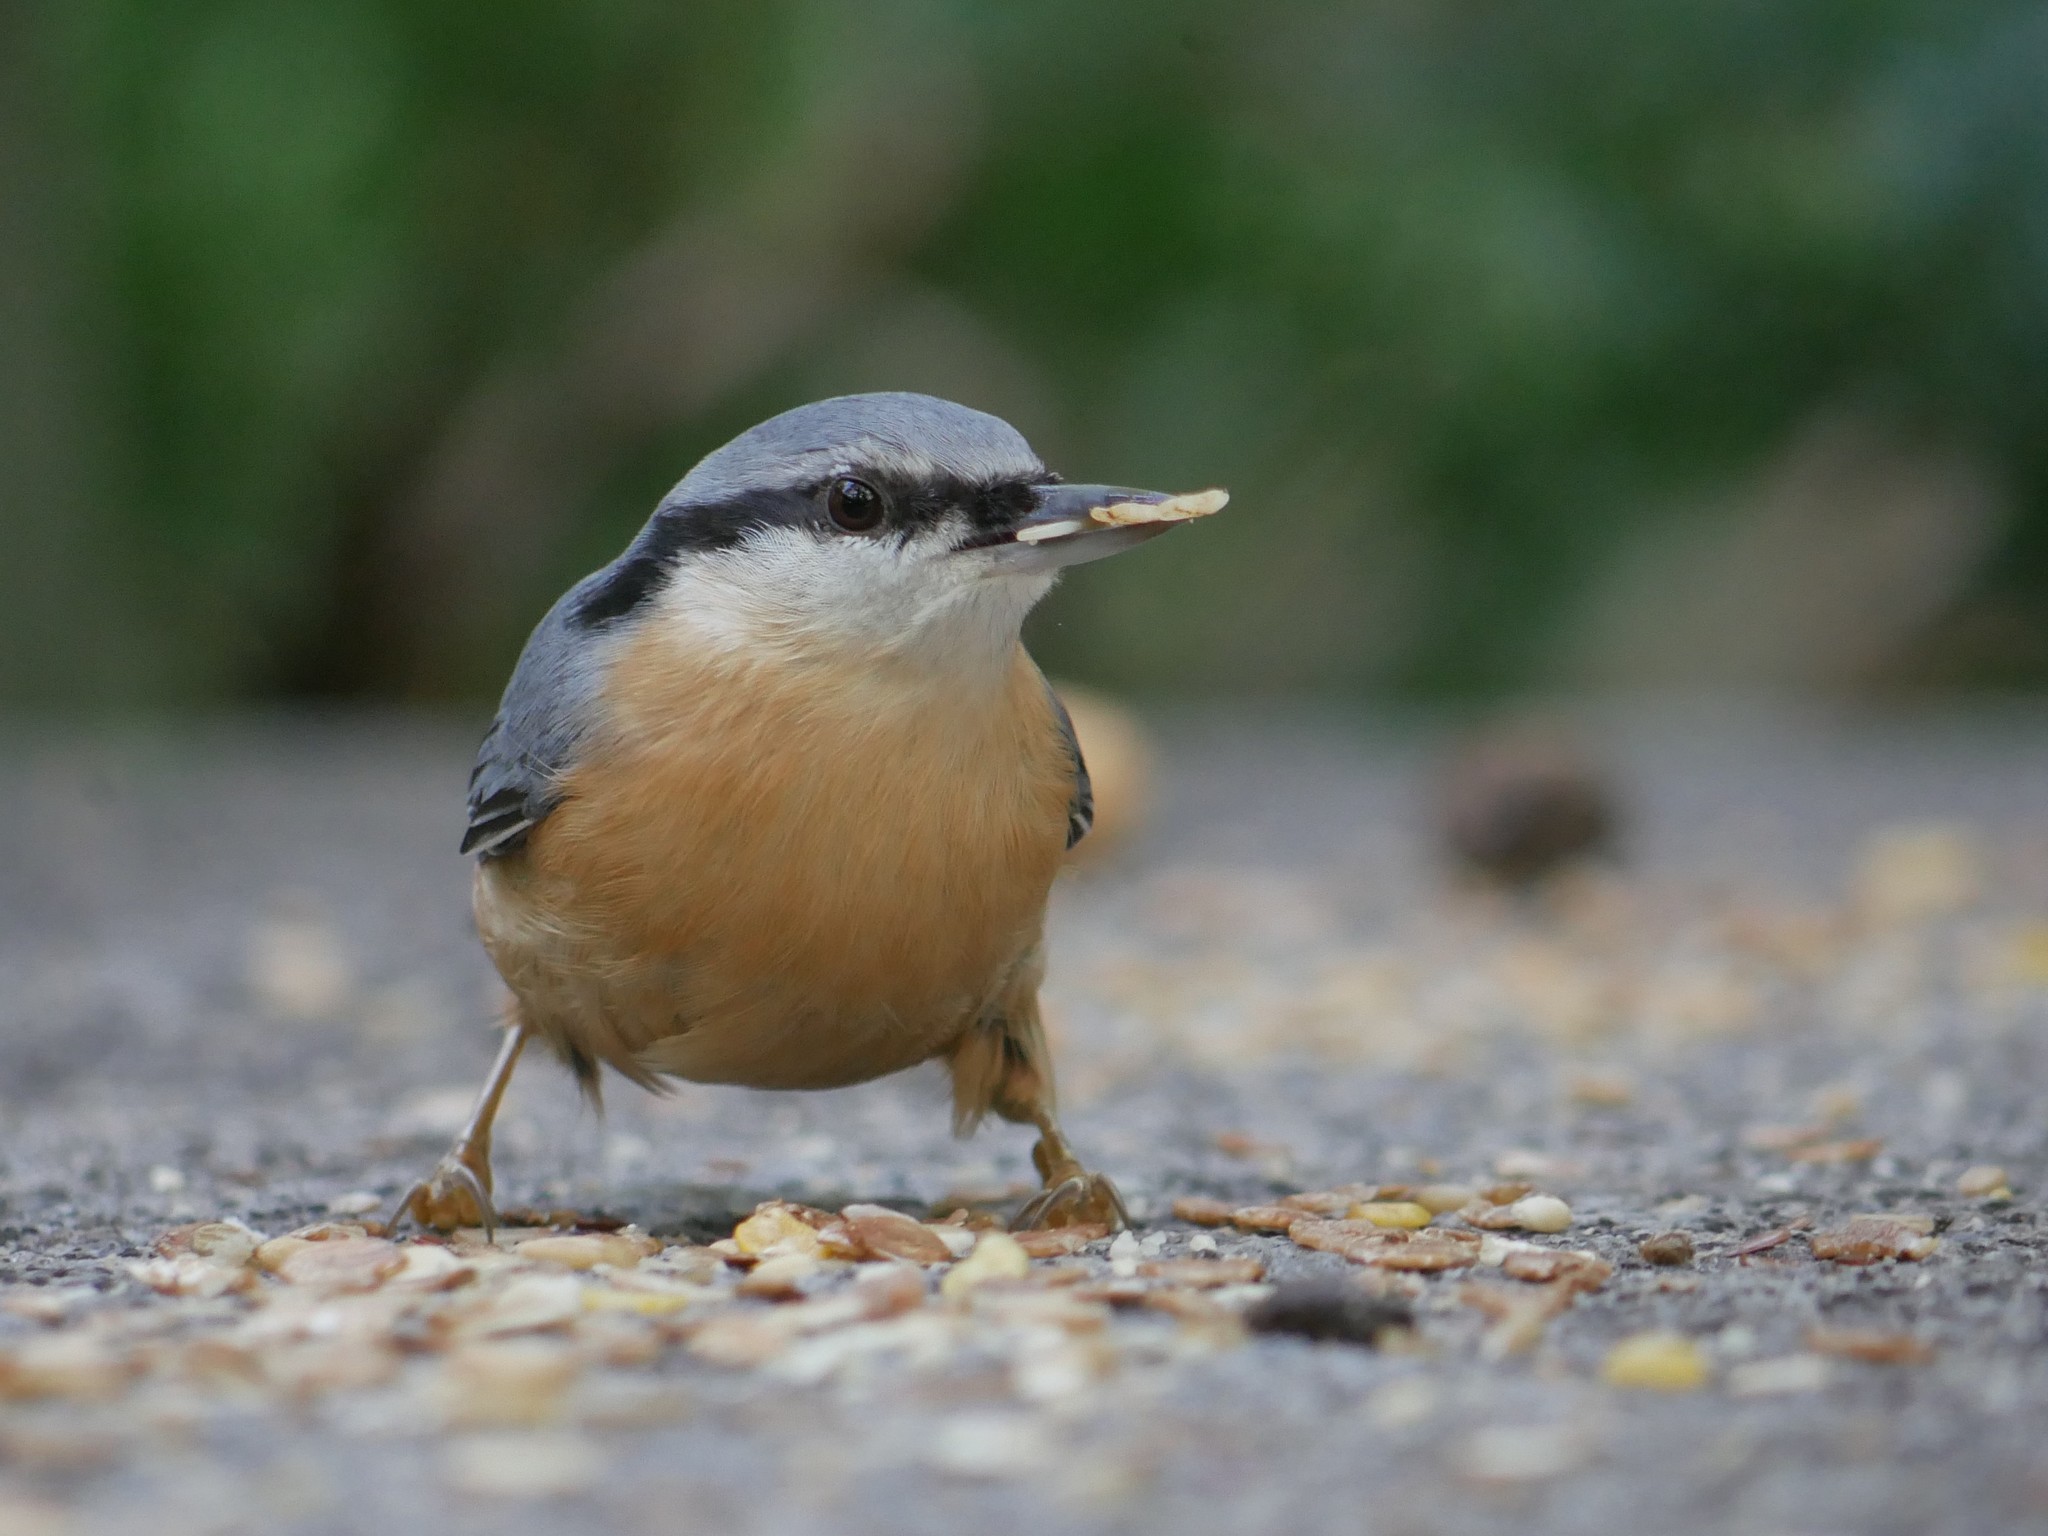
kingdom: Animalia
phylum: Chordata
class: Aves
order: Passeriformes
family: Sittidae
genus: Sitta
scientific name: Sitta europaea
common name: Eurasian nuthatch
